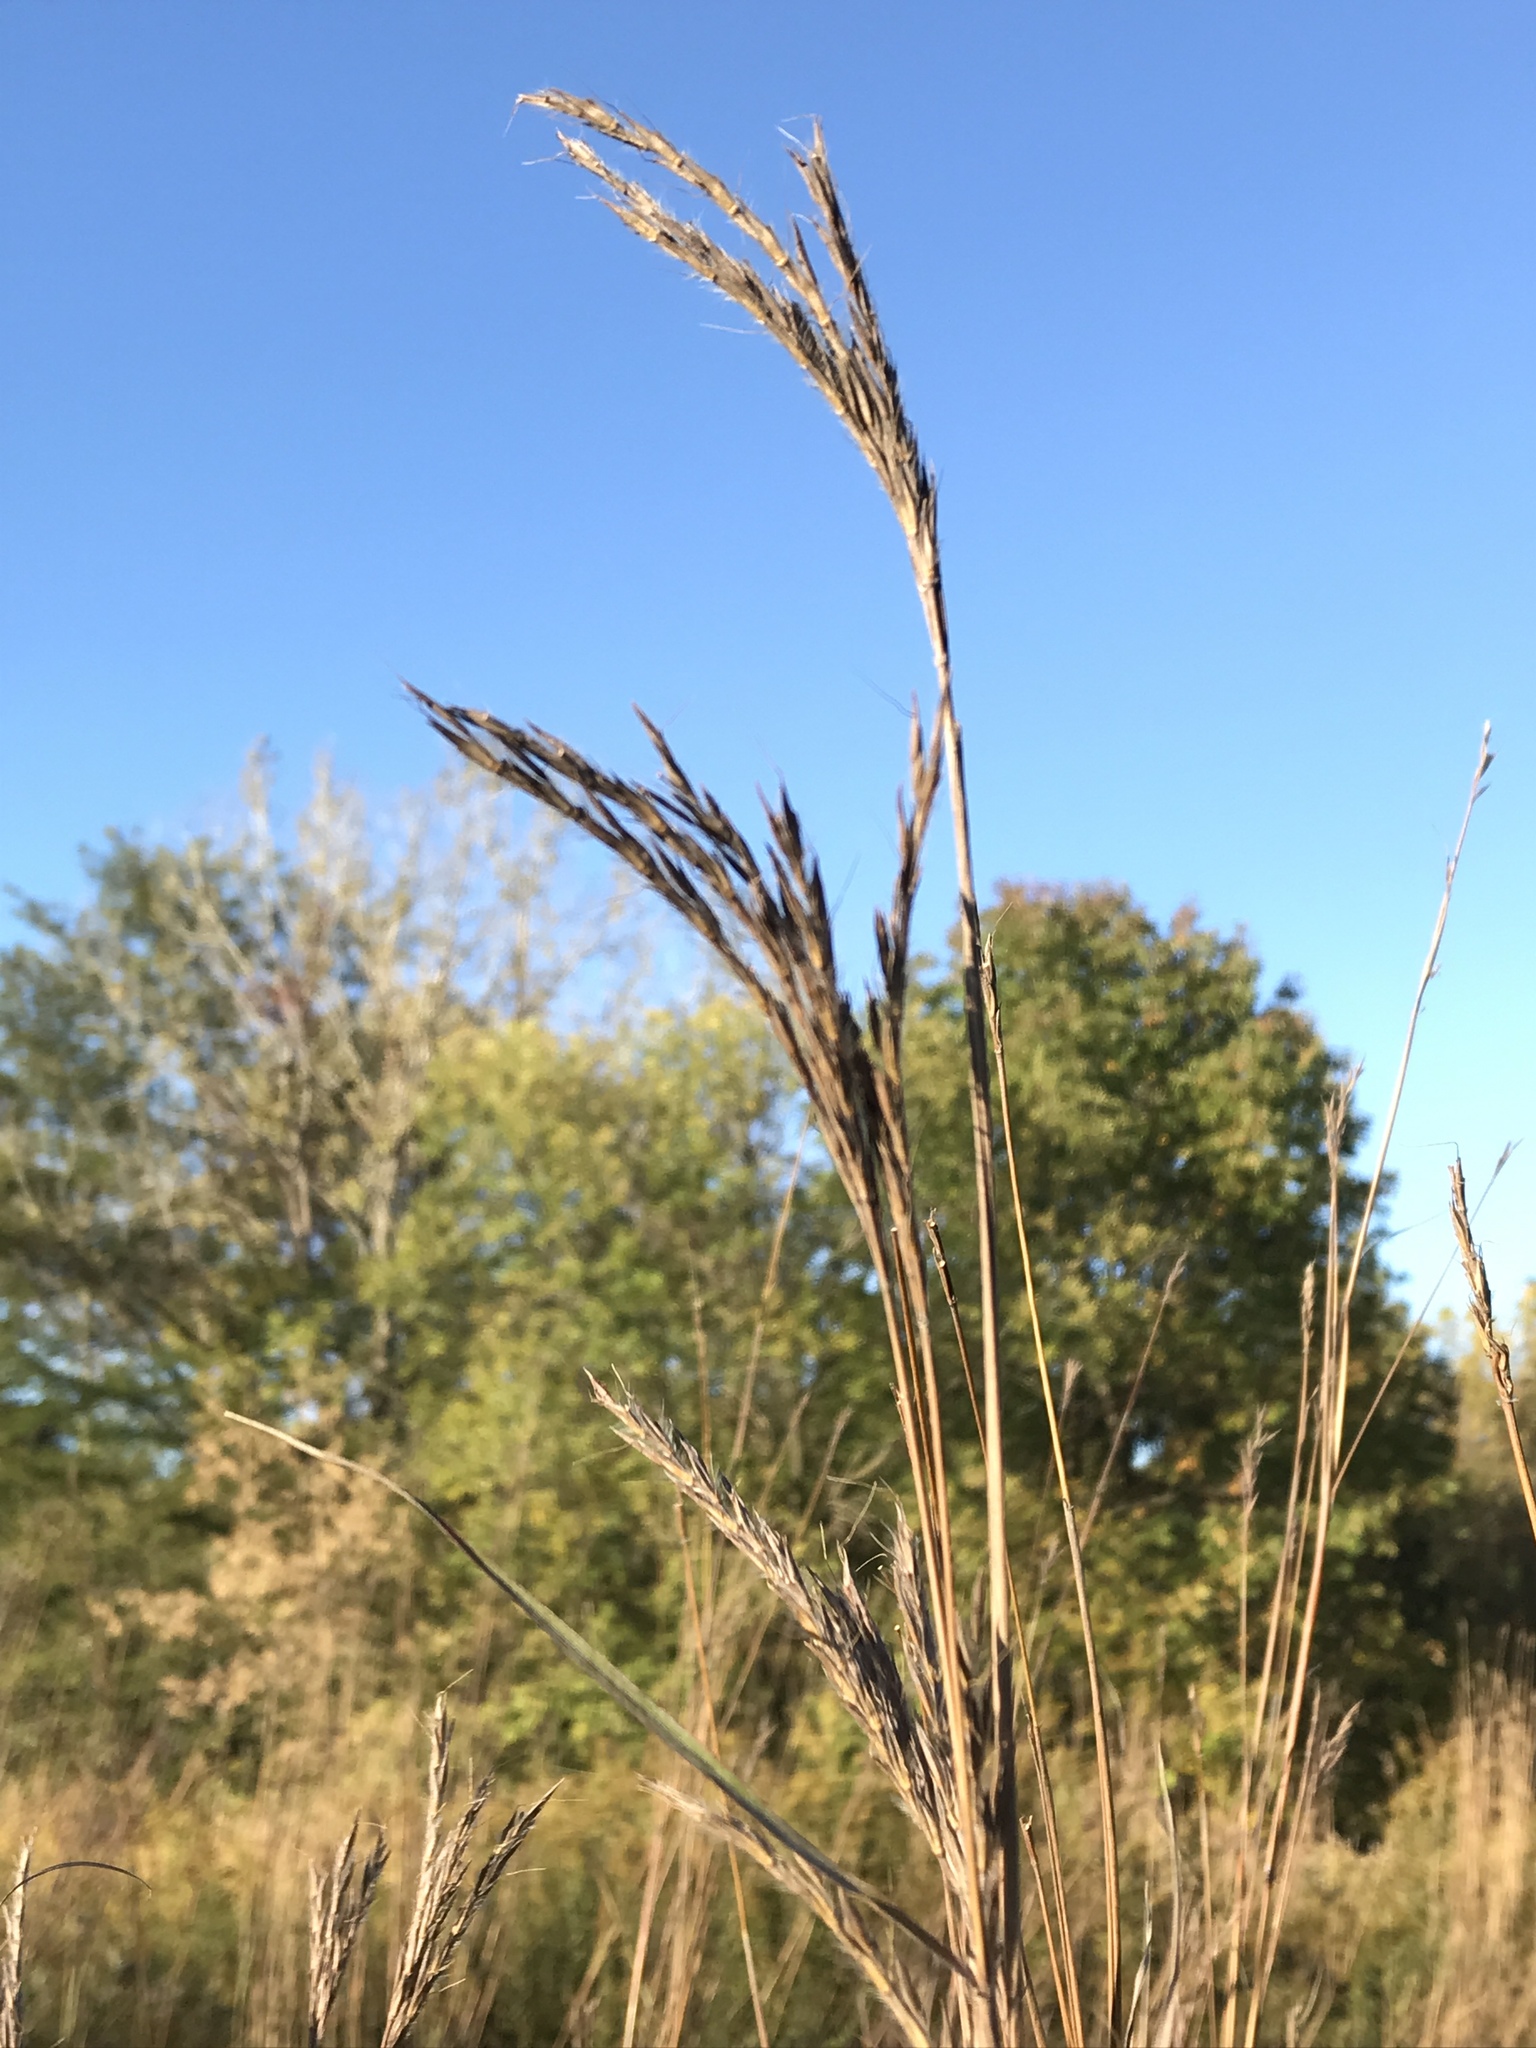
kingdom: Plantae
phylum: Tracheophyta
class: Liliopsida
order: Poales
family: Poaceae
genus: Andropogon
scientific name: Andropogon gerardi
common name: Big bluestem
